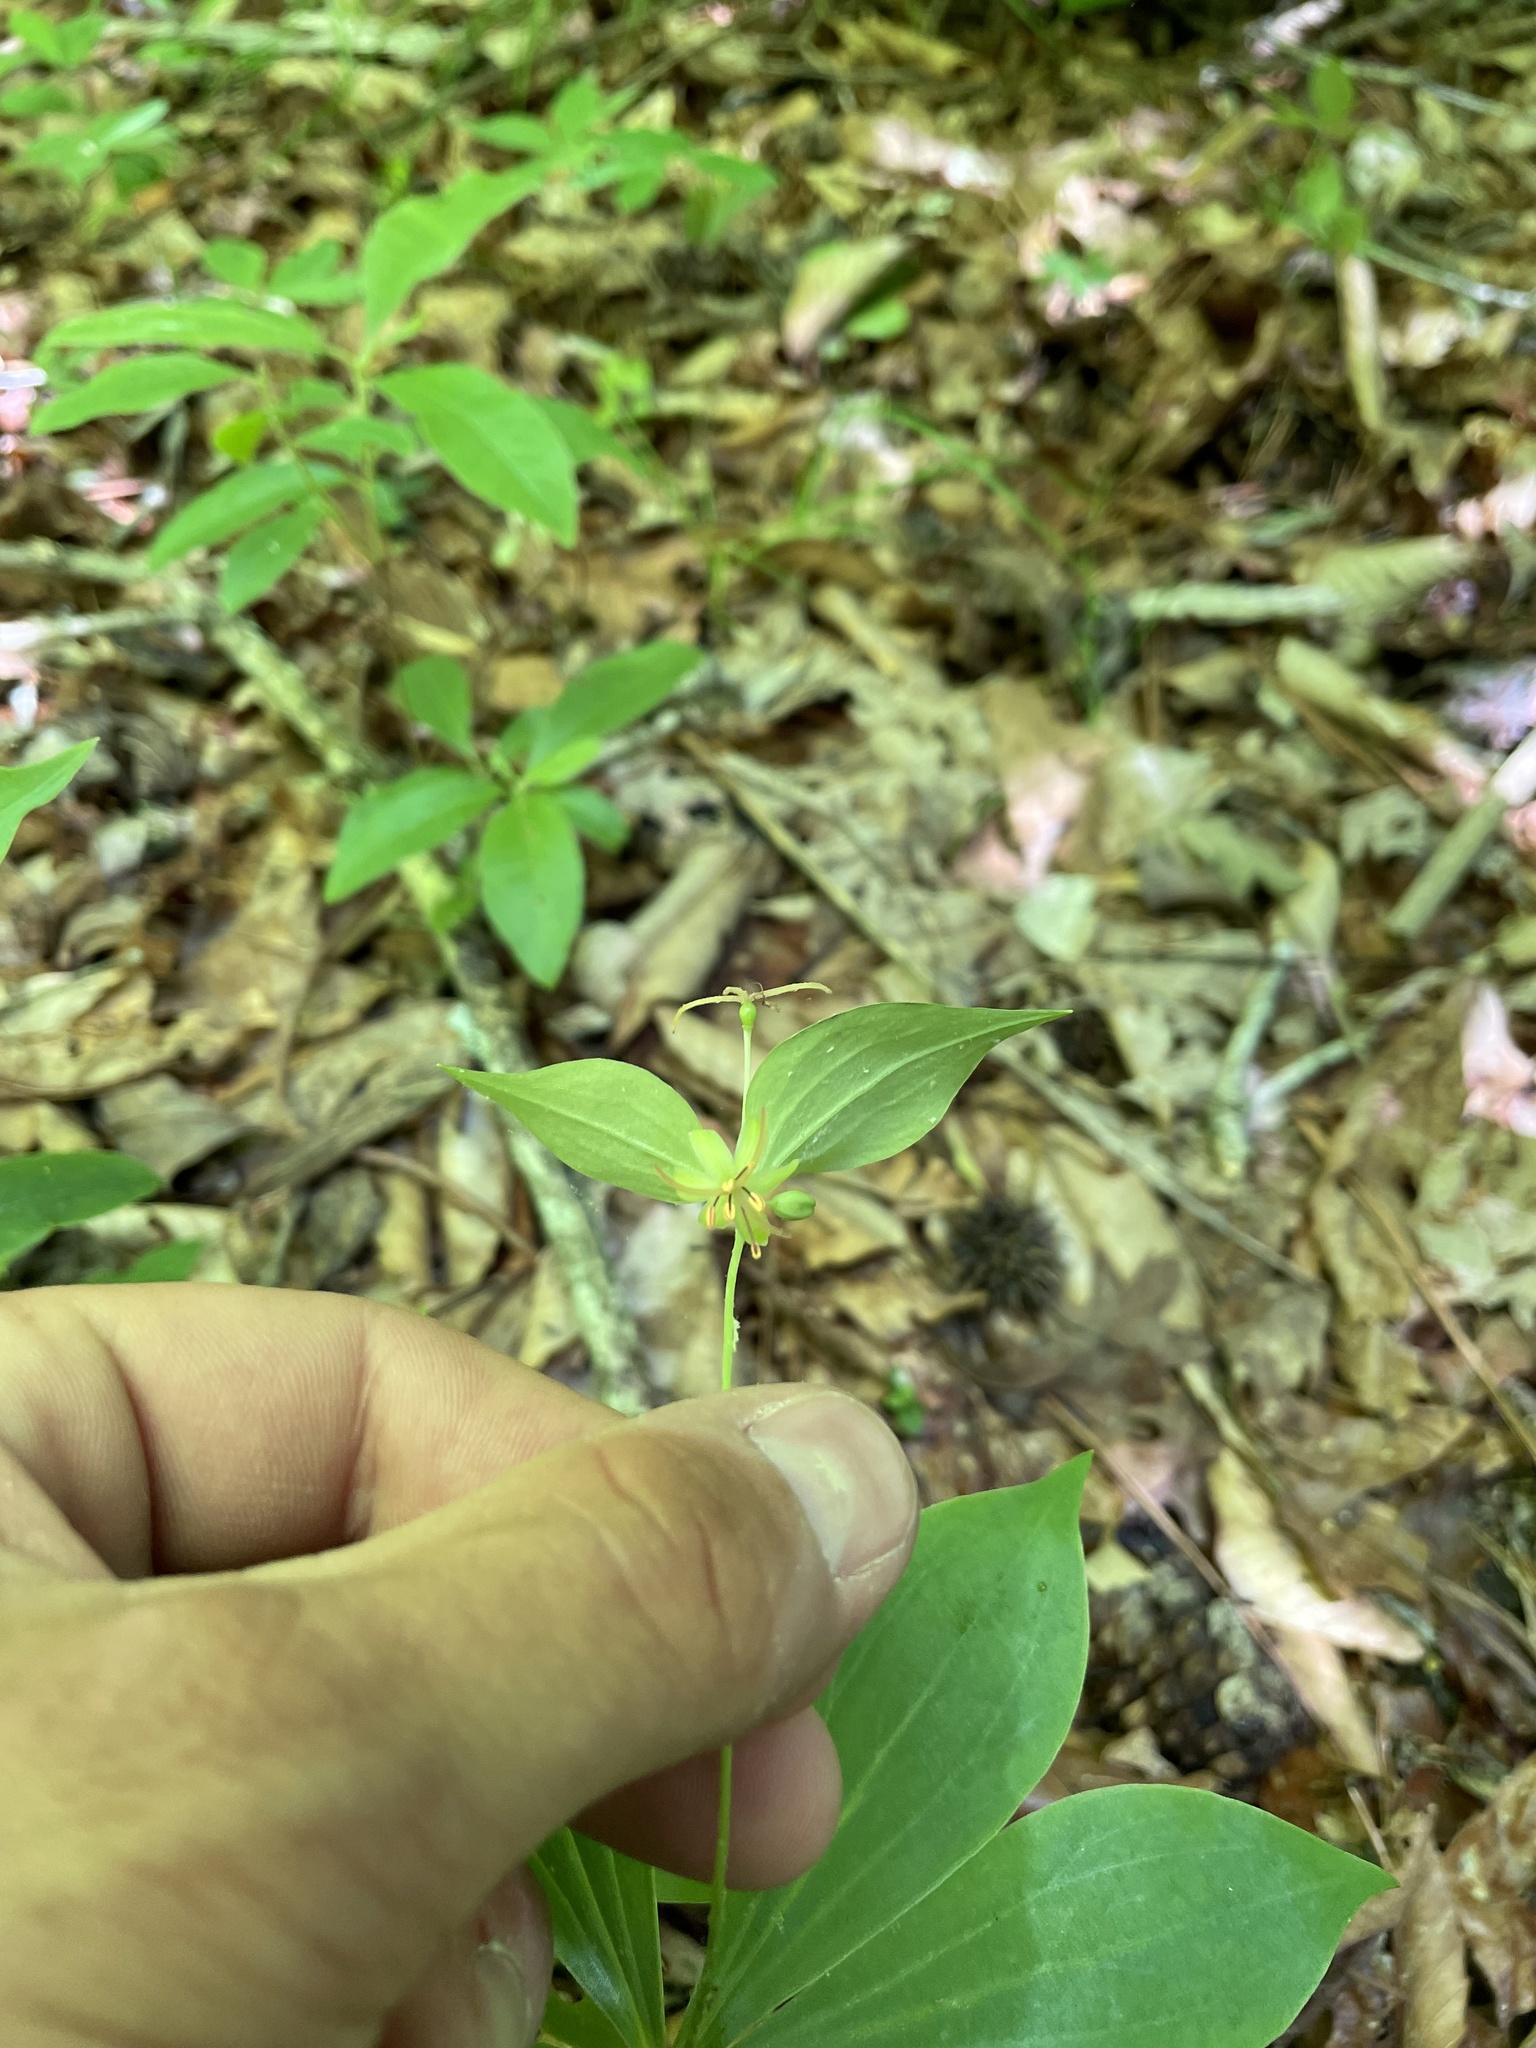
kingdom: Plantae
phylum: Tracheophyta
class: Liliopsida
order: Liliales
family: Liliaceae
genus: Medeola
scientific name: Medeola virginiana
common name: Indian cucumber-root
